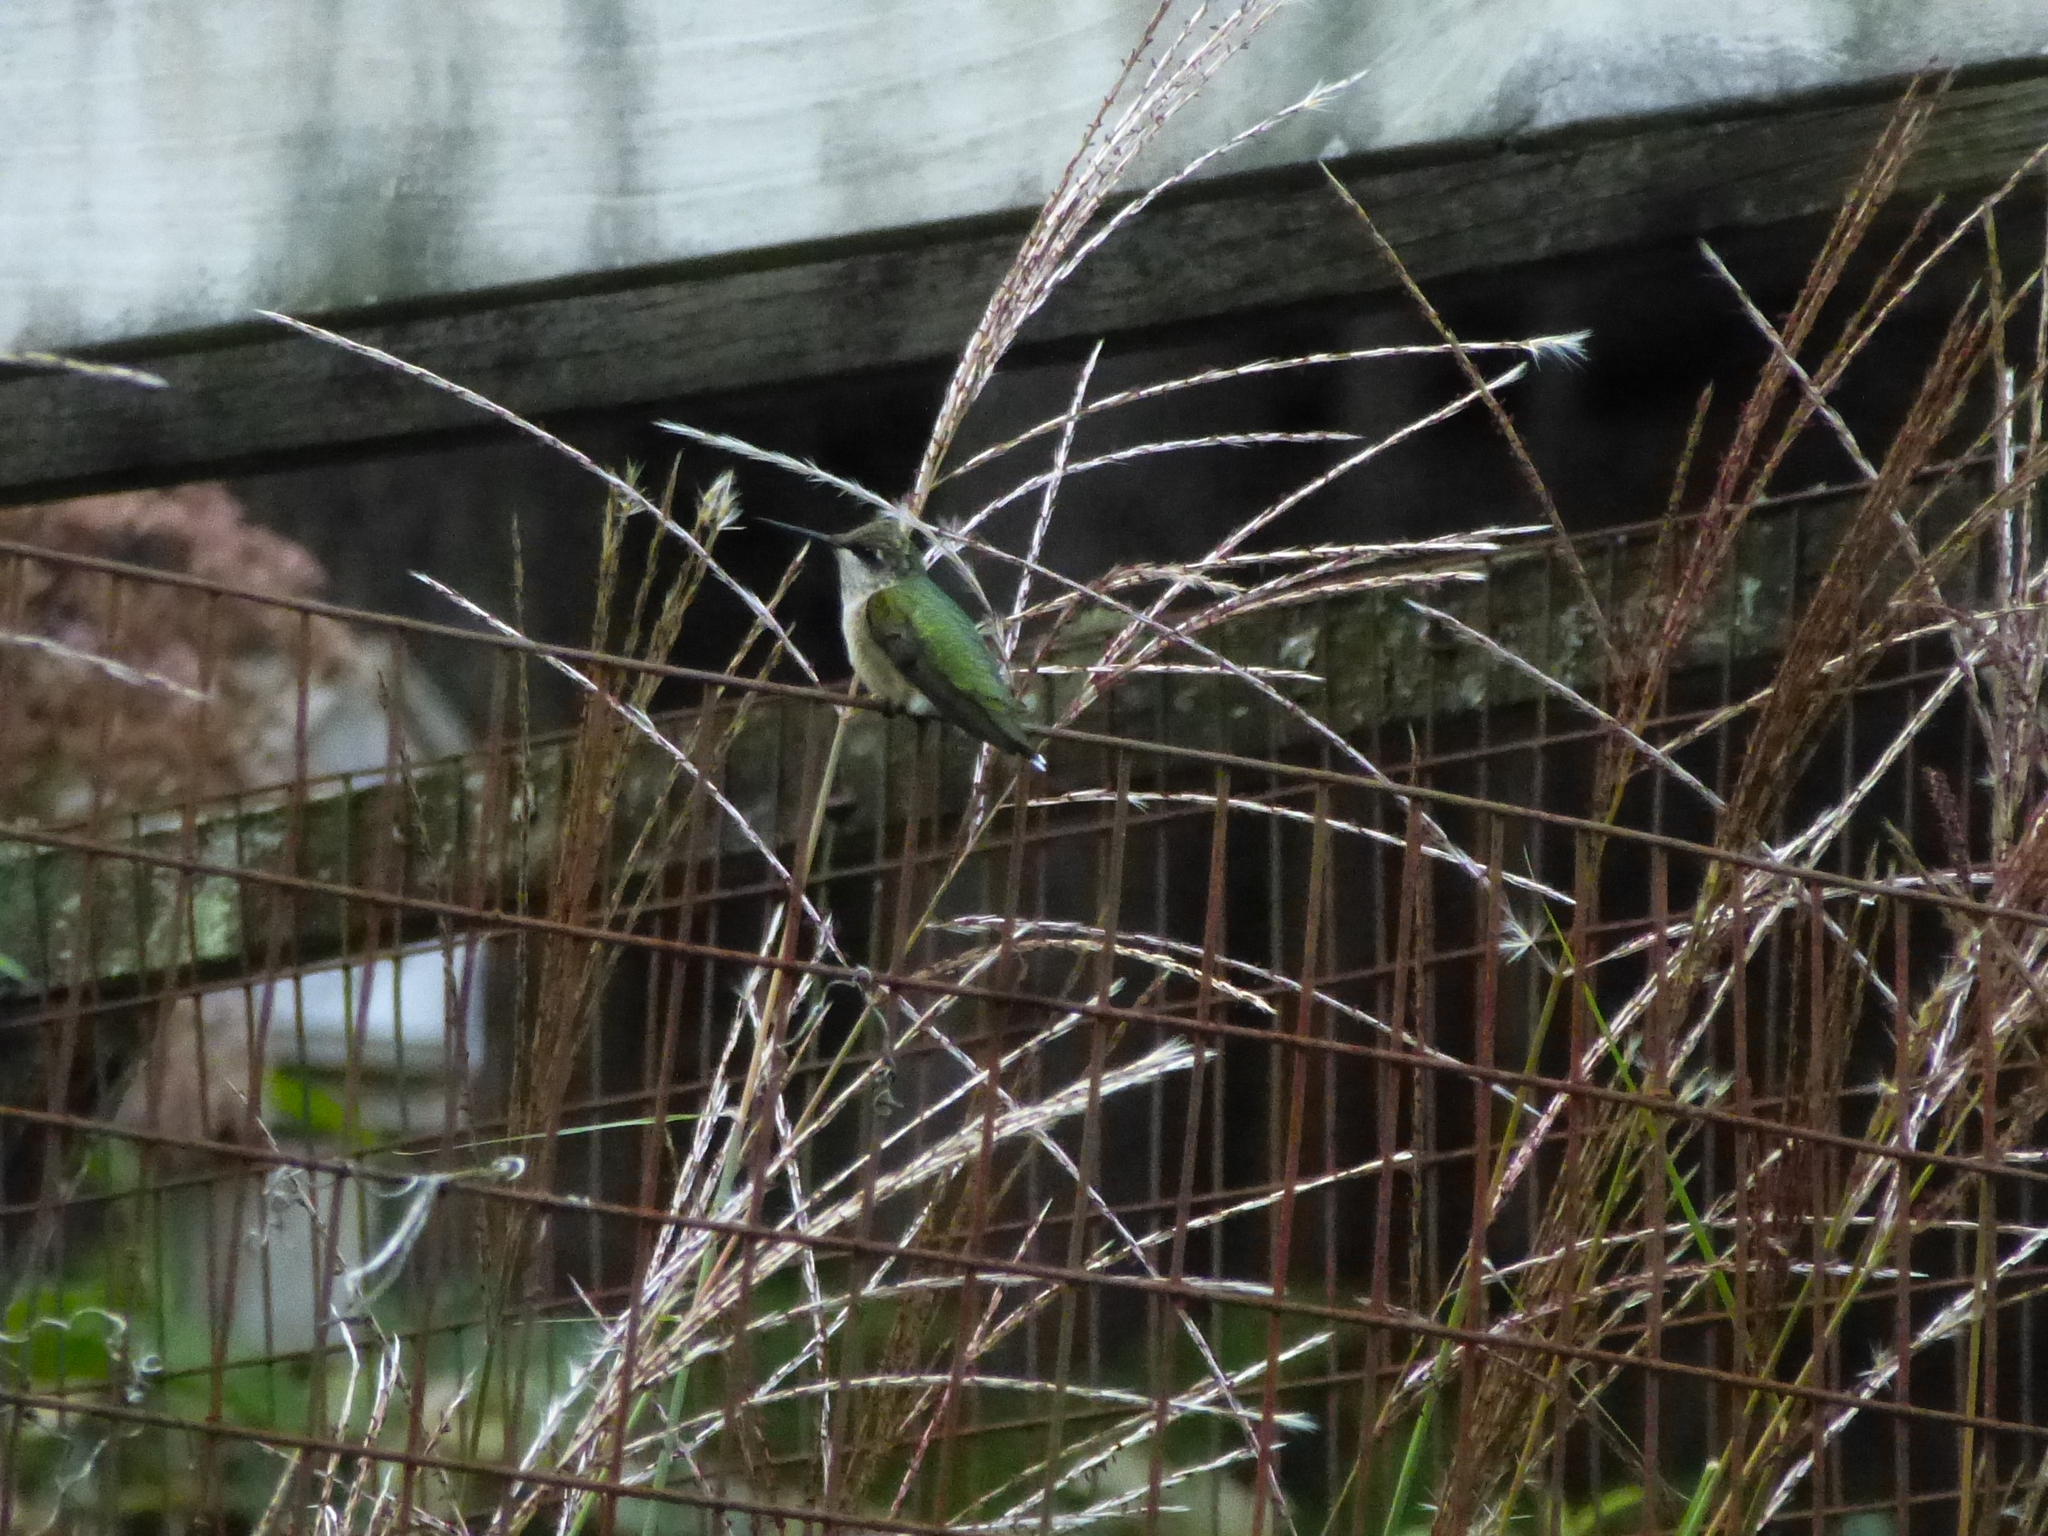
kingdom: Animalia
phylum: Chordata
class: Aves
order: Apodiformes
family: Trochilidae
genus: Archilochus
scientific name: Archilochus colubris
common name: Ruby-throated hummingbird
